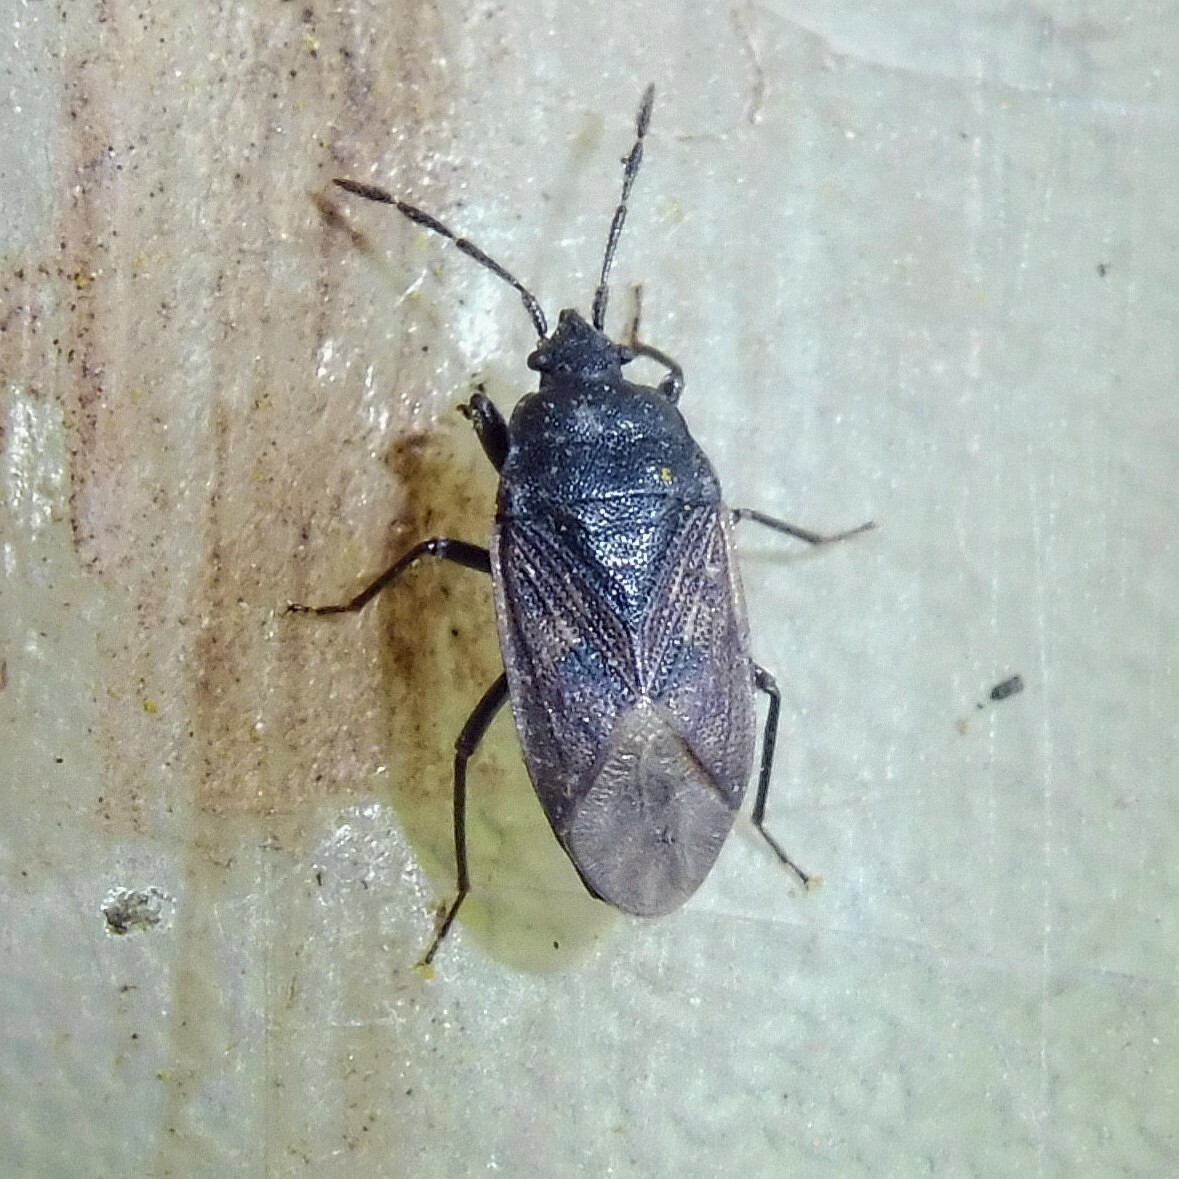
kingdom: Animalia
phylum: Arthropoda
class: Insecta
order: Hemiptera
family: Rhyparochromidae
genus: Drymus
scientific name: Drymus sylvaticus
